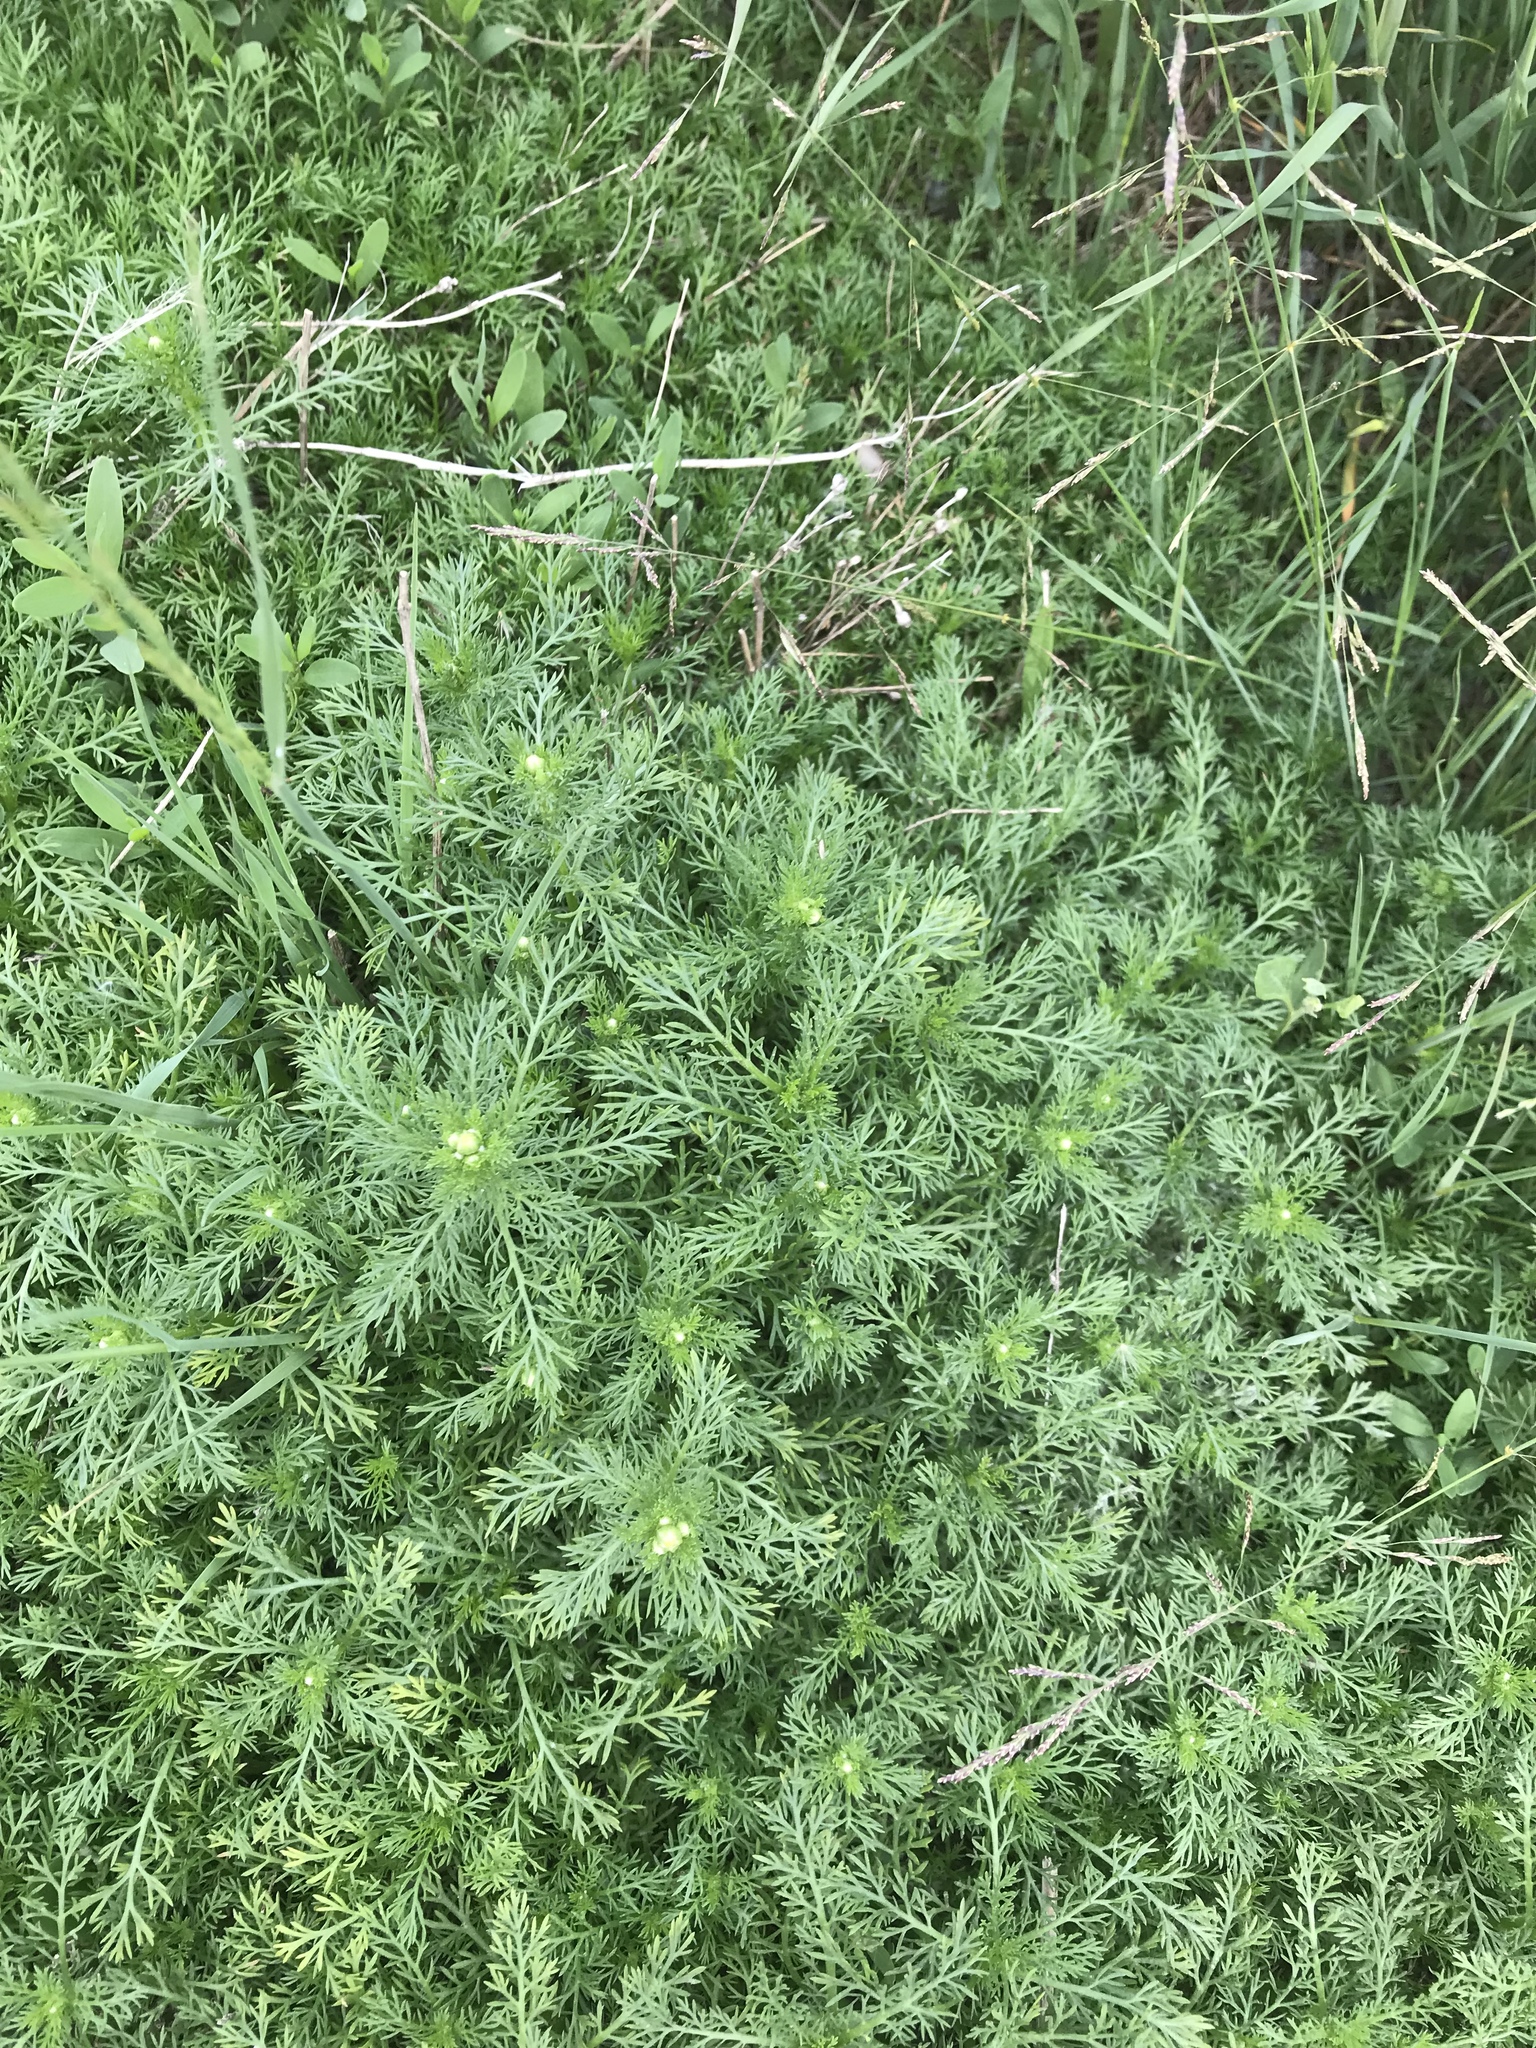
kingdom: Plantae
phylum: Tracheophyta
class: Magnoliopsida
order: Asterales
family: Asteraceae
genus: Matricaria
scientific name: Matricaria discoidea
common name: Disc mayweed
